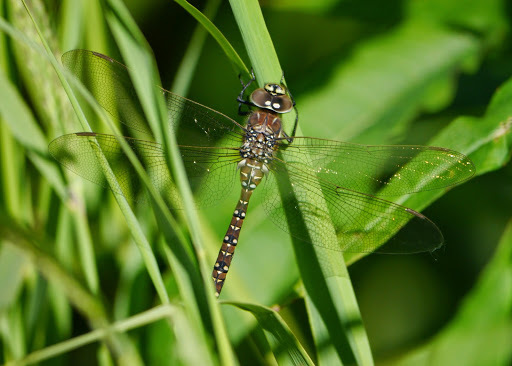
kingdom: Animalia
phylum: Arthropoda
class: Insecta
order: Odonata
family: Aeshnidae
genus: Aeshna
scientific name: Aeshna juncea
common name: Moorland hawker
